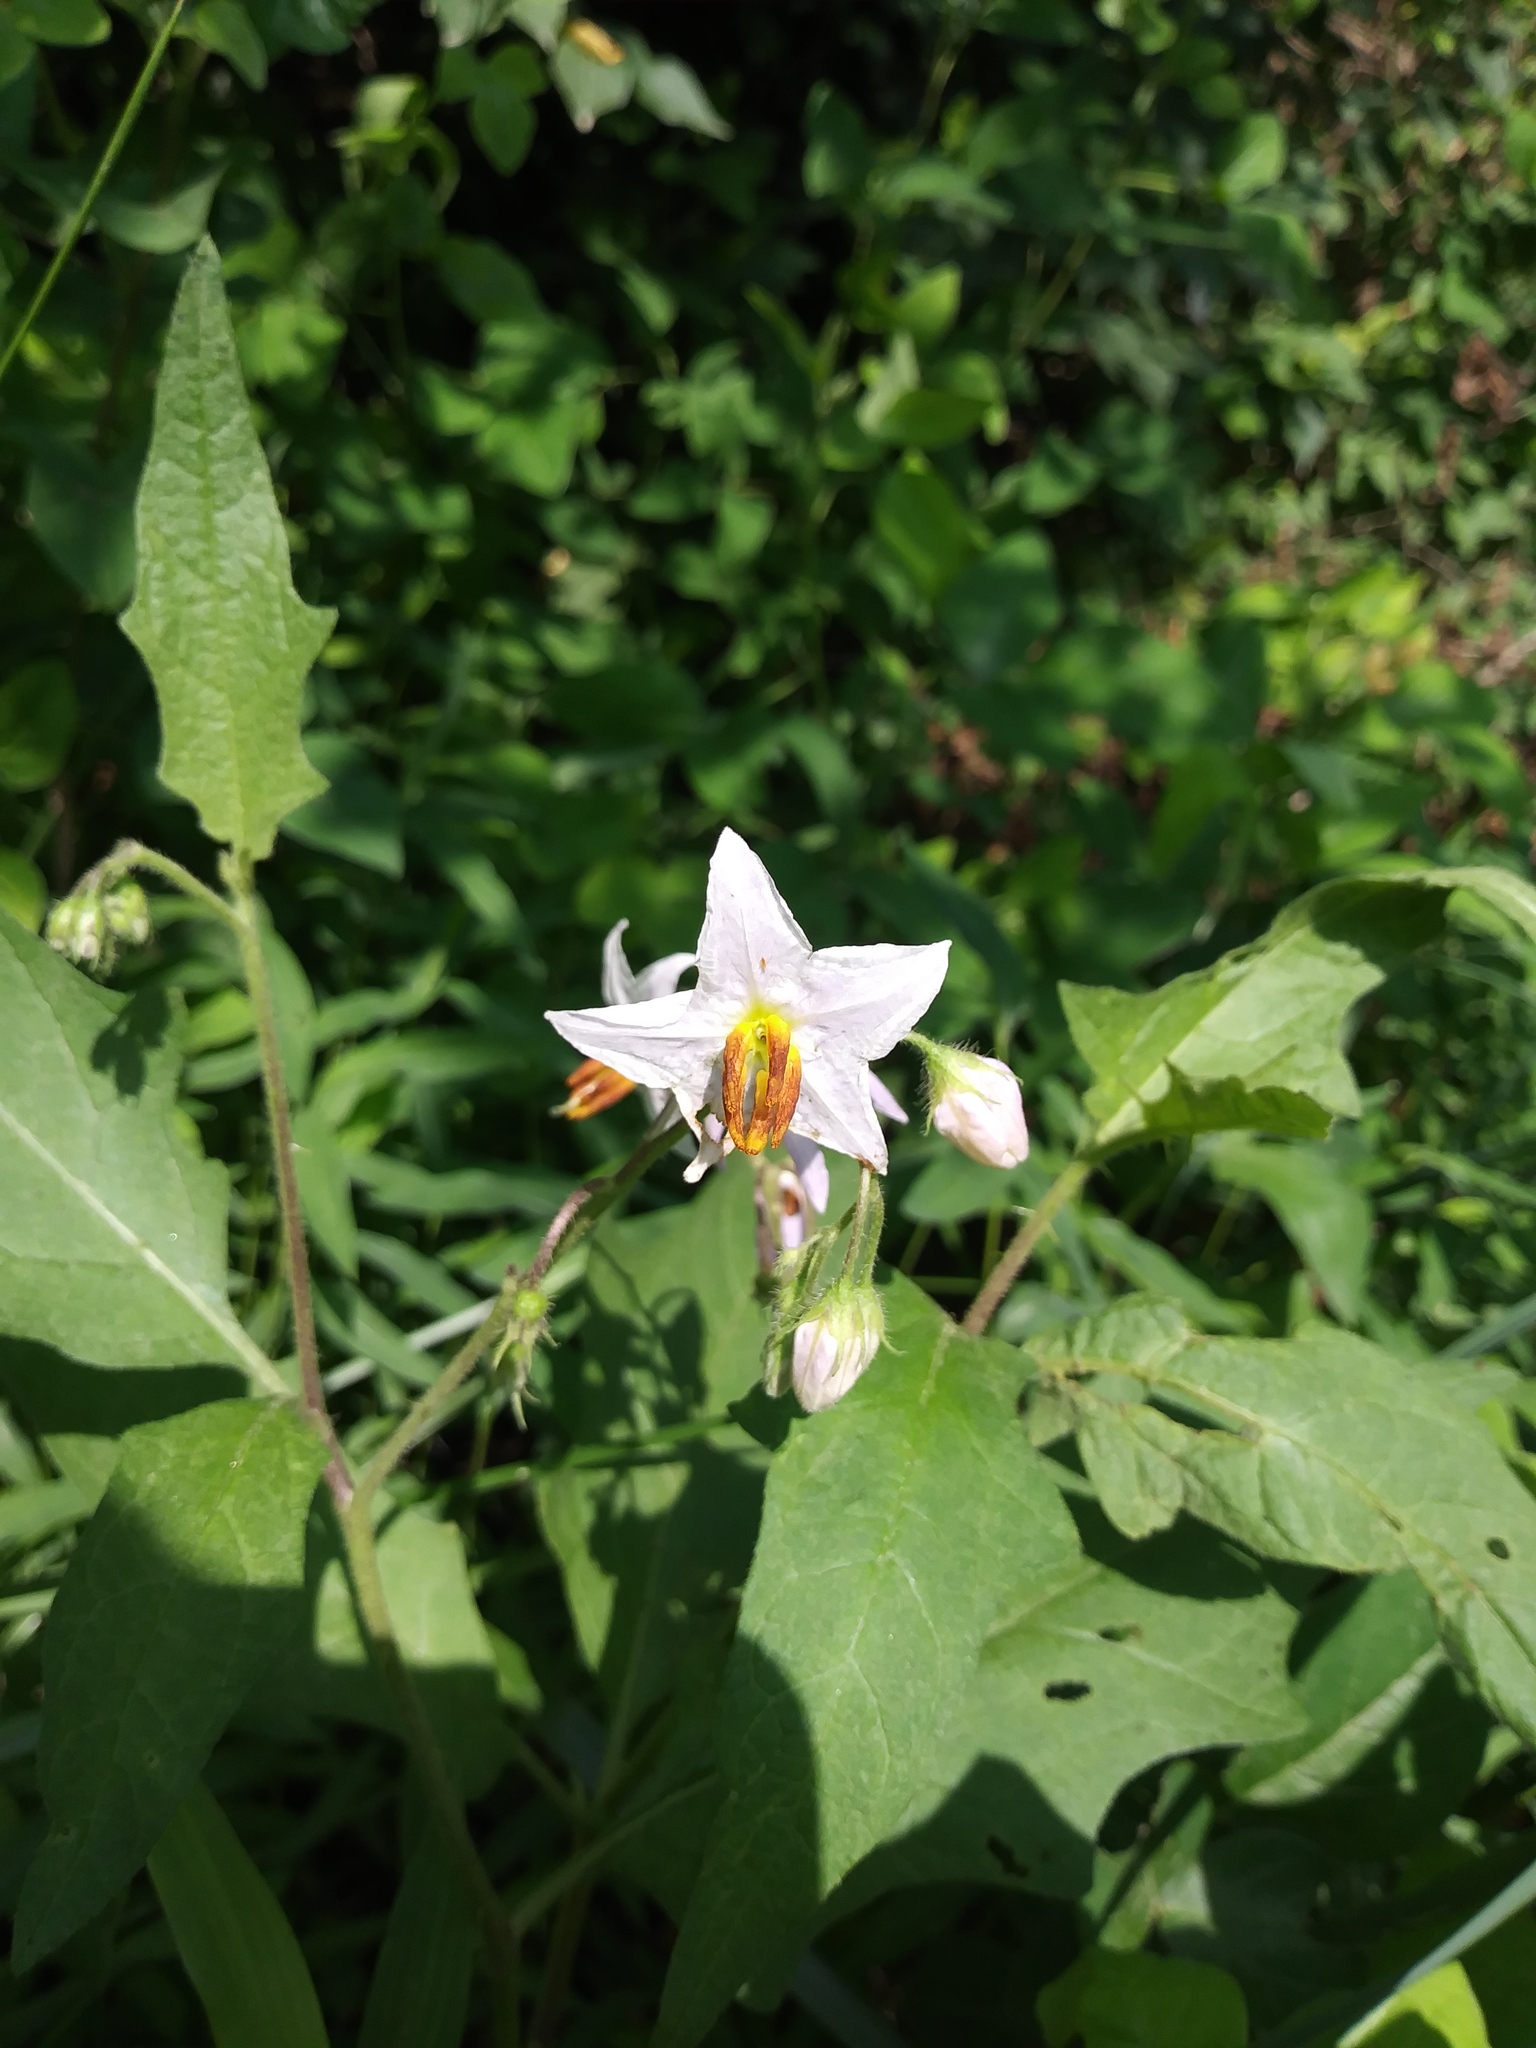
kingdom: Plantae
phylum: Tracheophyta
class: Magnoliopsida
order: Solanales
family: Solanaceae
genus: Solanum
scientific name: Solanum carolinense
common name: Horse-nettle
